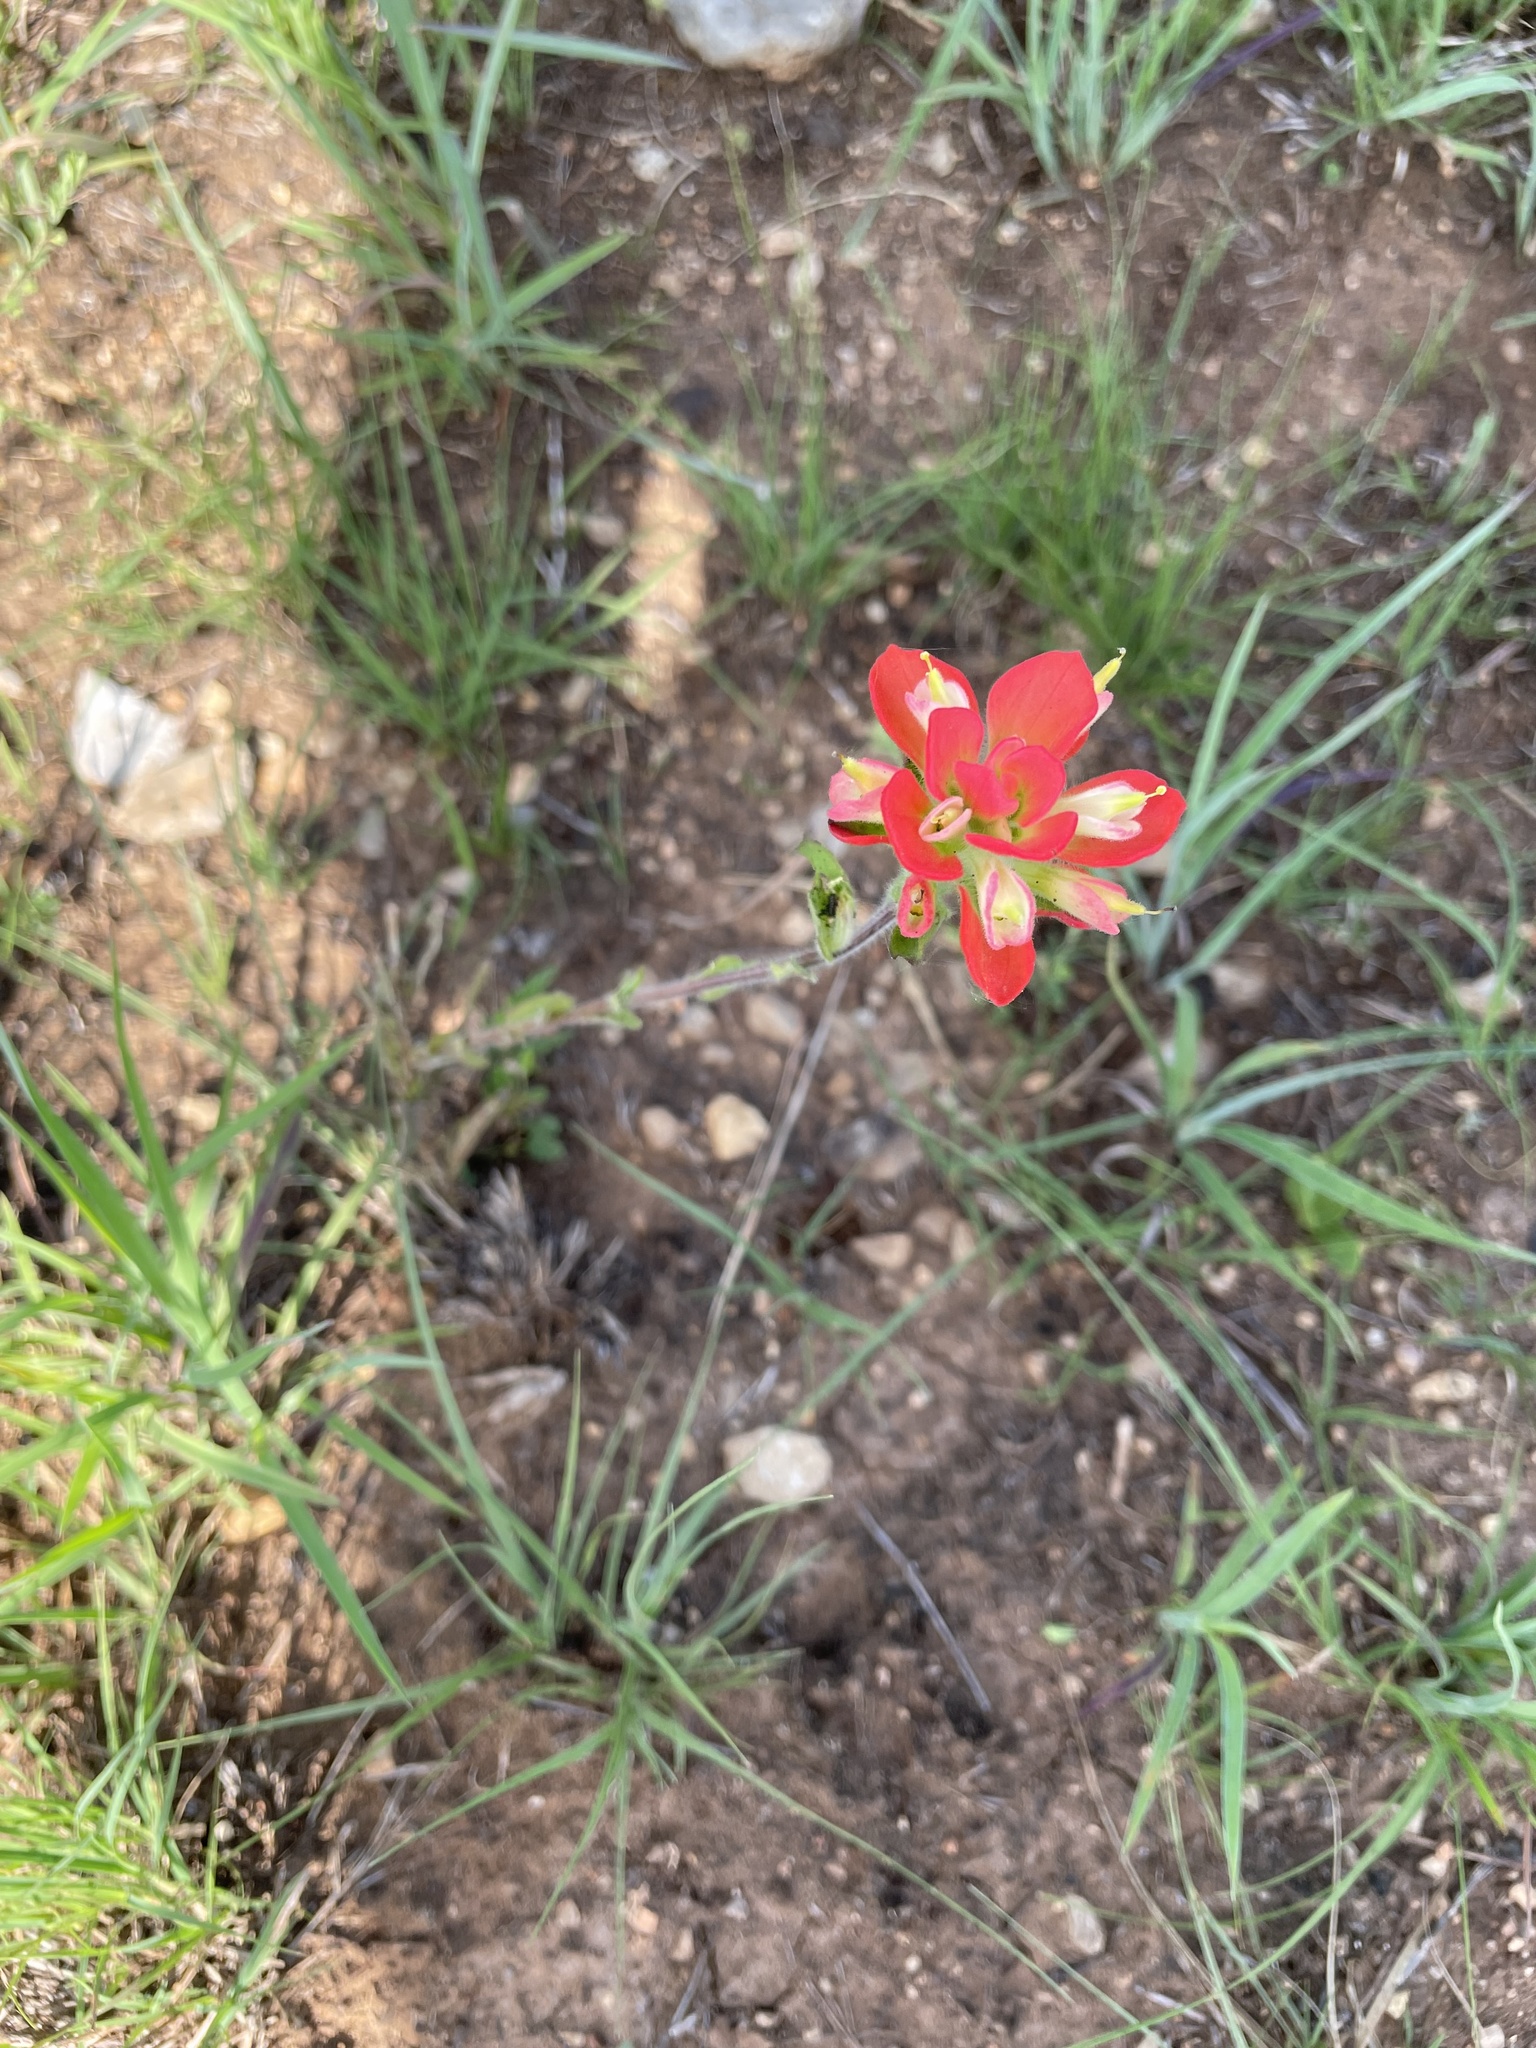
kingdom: Plantae
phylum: Tracheophyta
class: Magnoliopsida
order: Lamiales
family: Orobanchaceae
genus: Castilleja
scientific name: Castilleja indivisa
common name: Texas paintbrush
